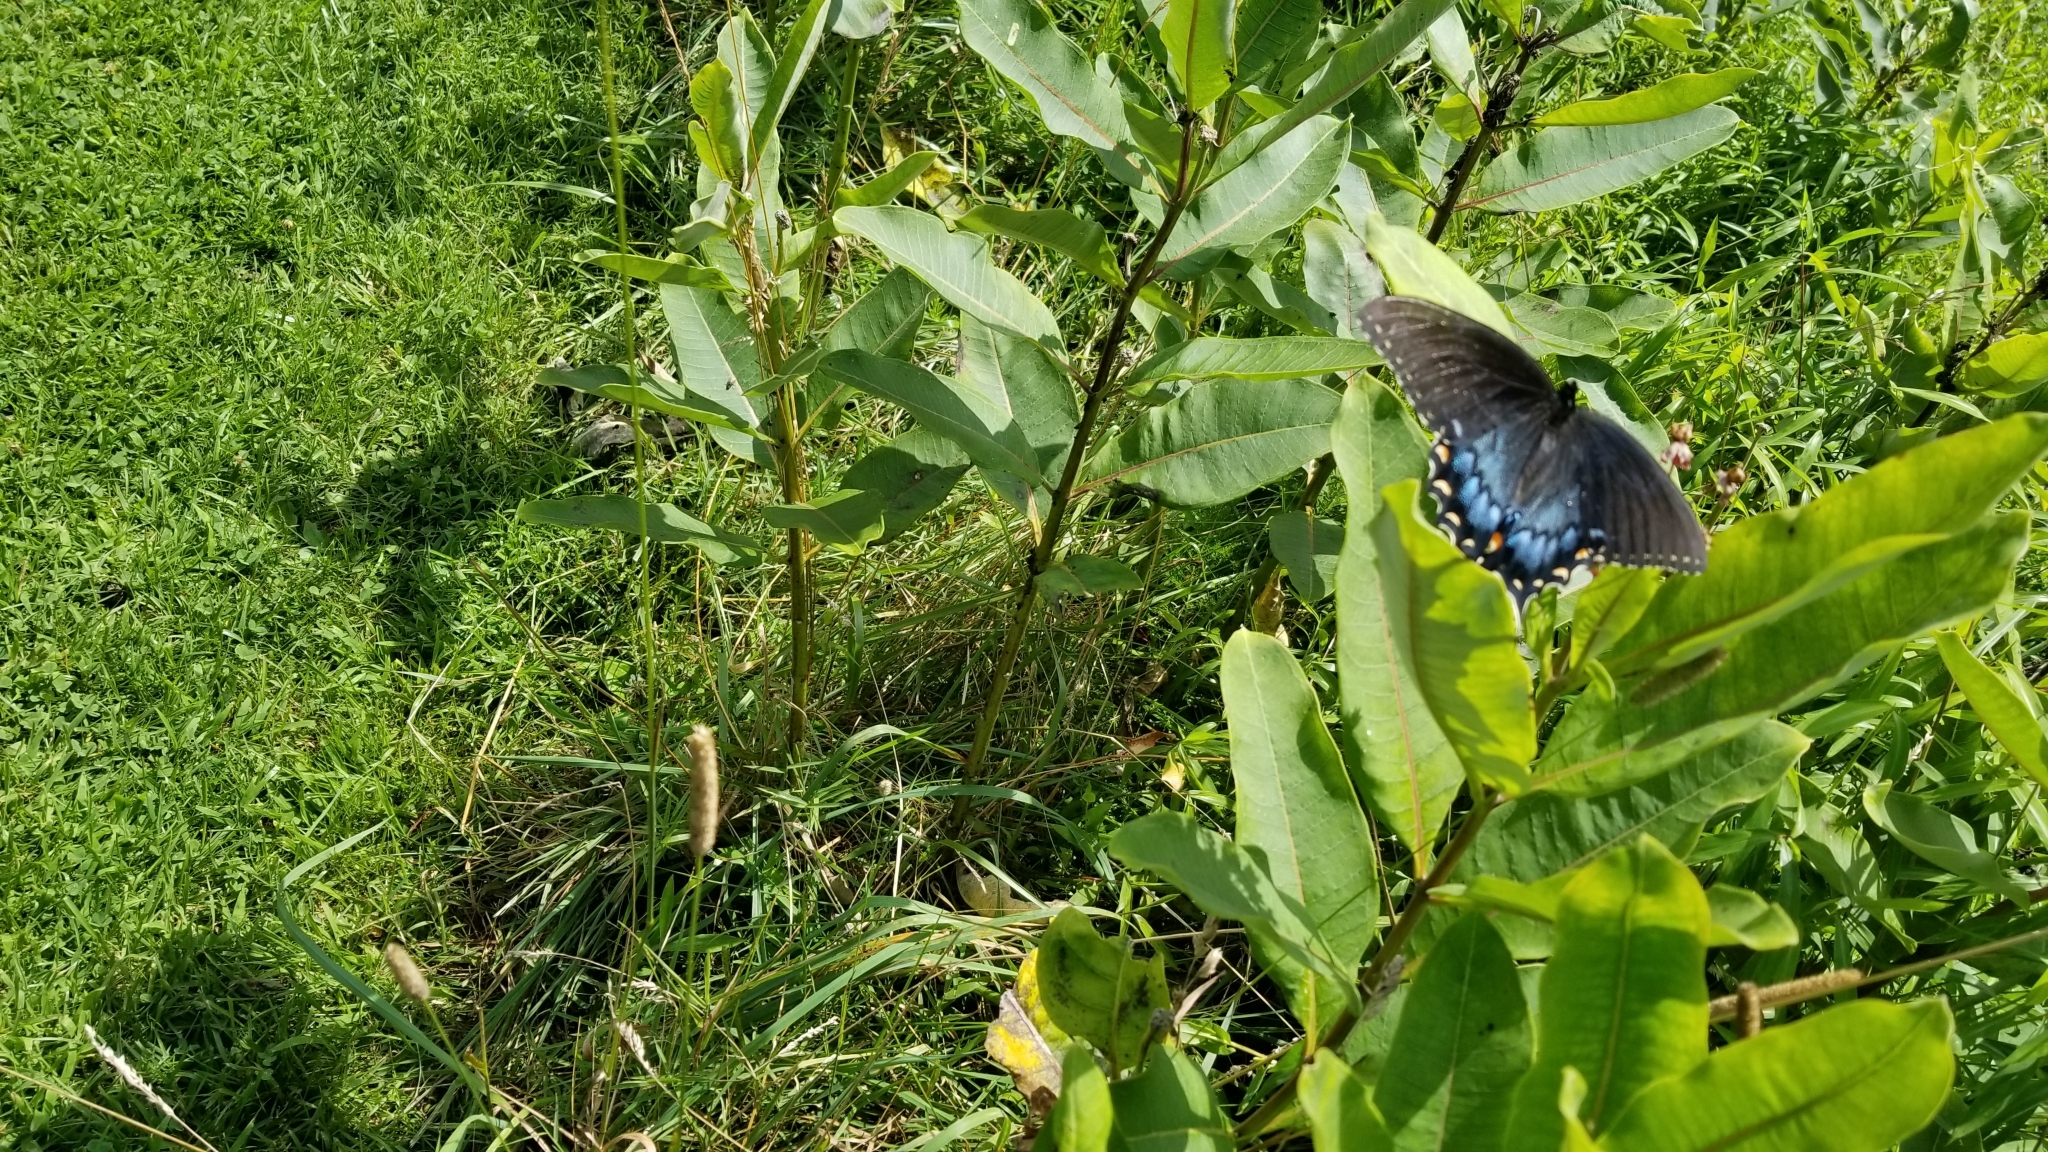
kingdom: Animalia
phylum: Arthropoda
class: Insecta
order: Lepidoptera
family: Papilionidae
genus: Papilio
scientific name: Papilio glaucus
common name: Tiger swallowtail
